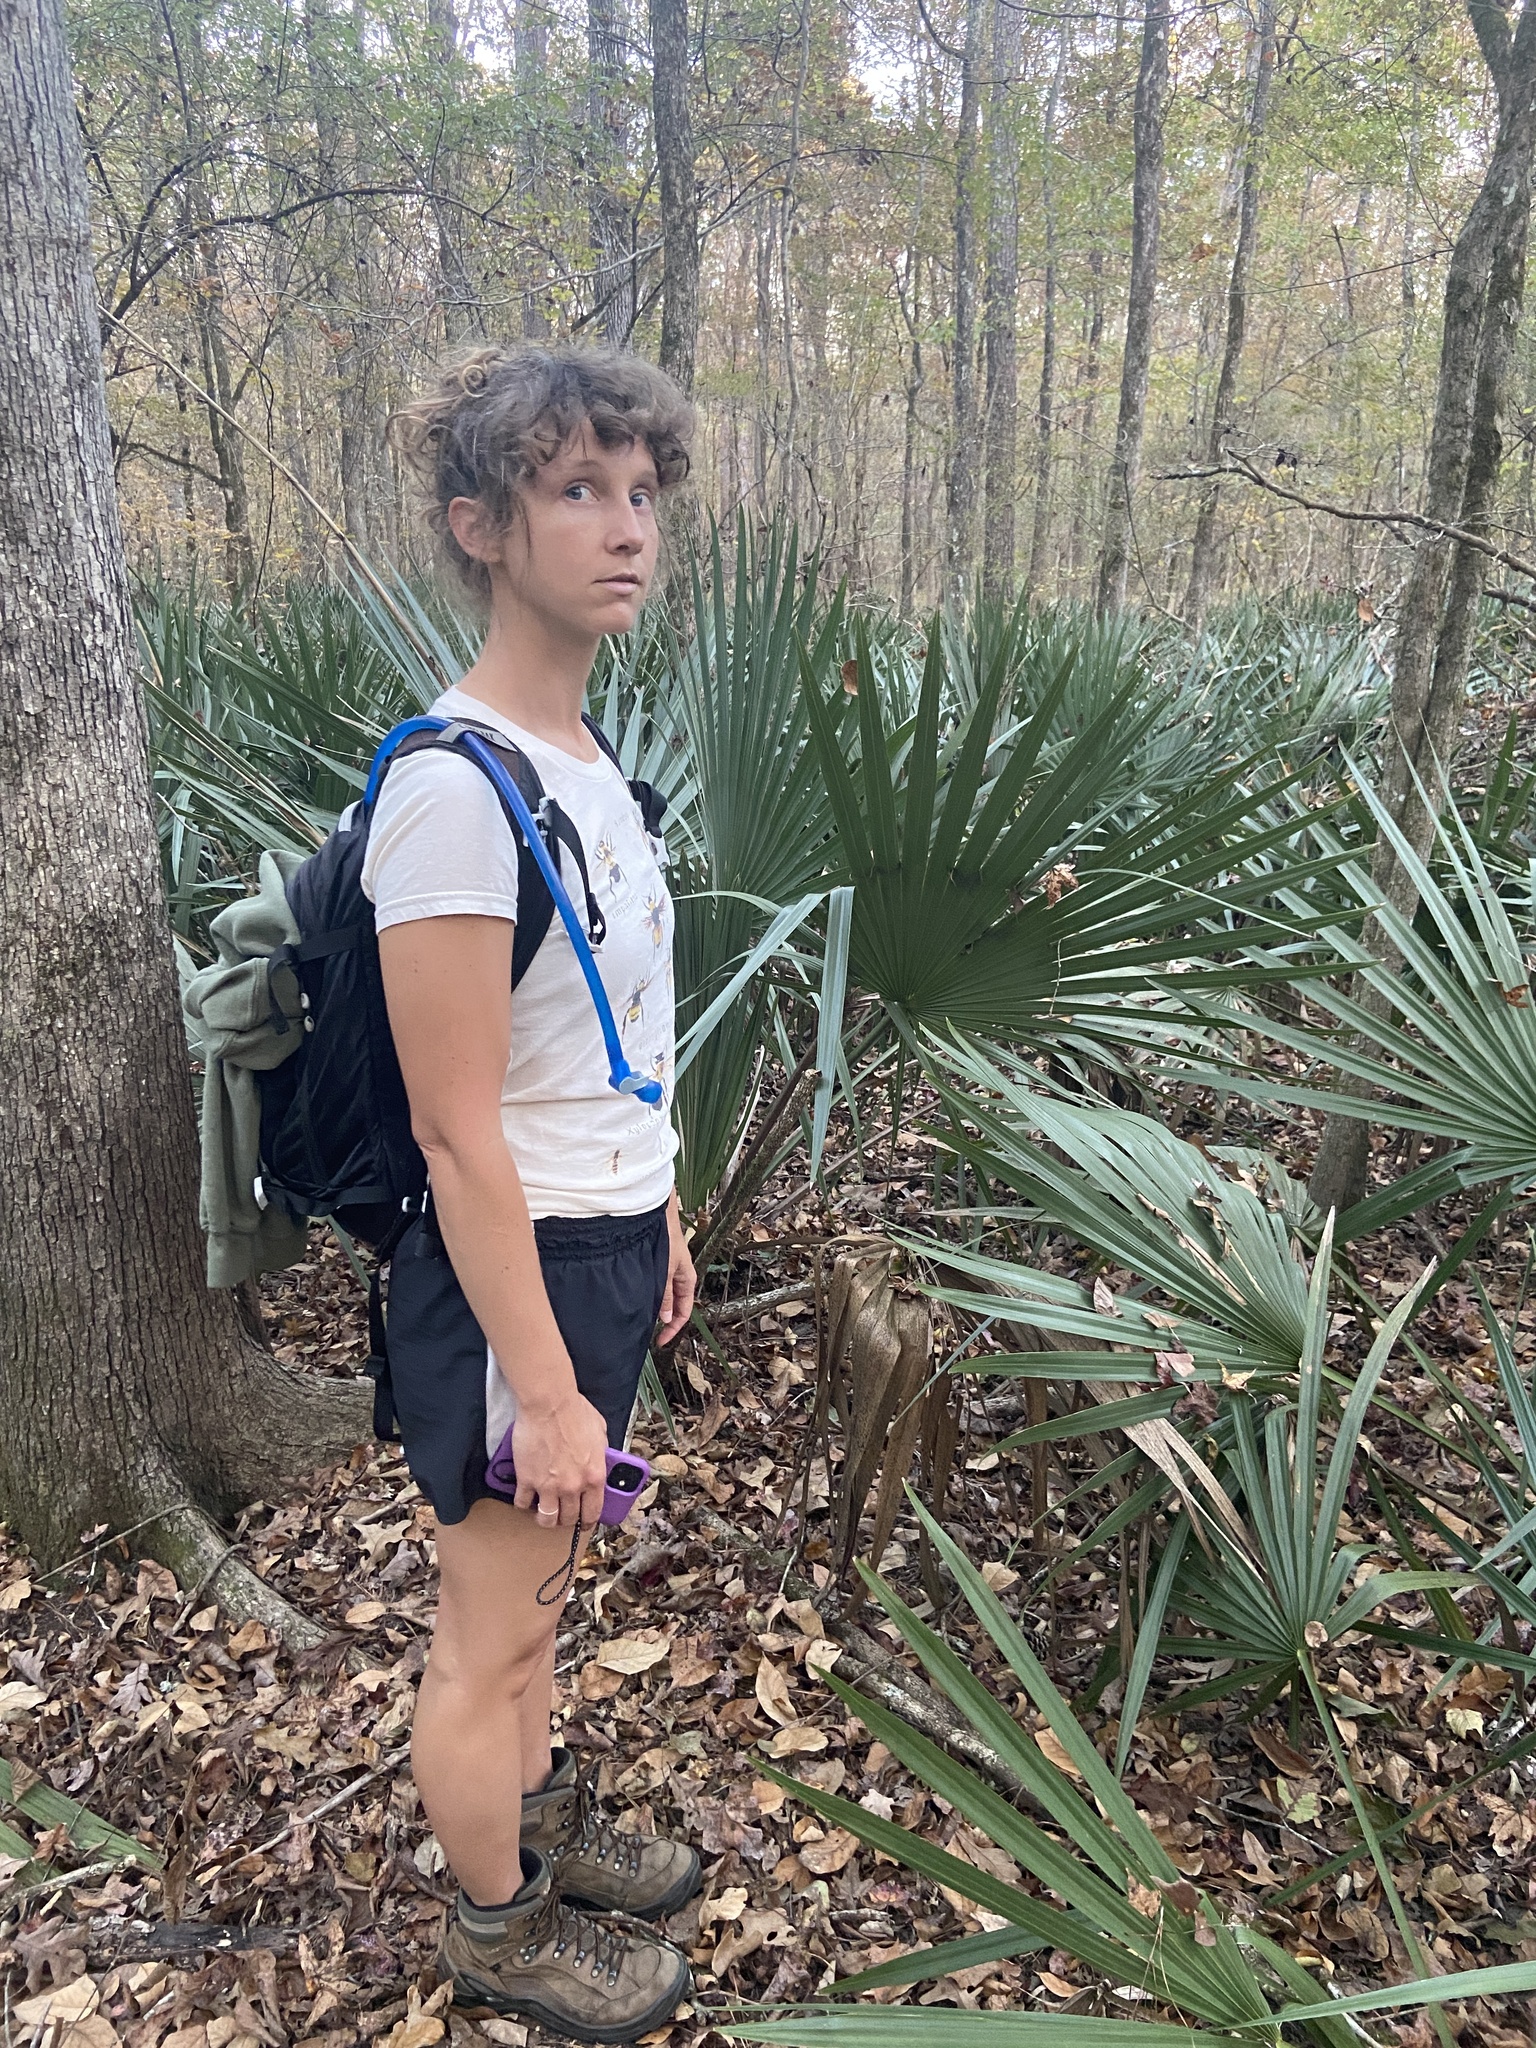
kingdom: Plantae
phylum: Tracheophyta
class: Liliopsida
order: Arecales
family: Arecaceae
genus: Sabal
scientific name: Sabal minor
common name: Dwarf palmetto
